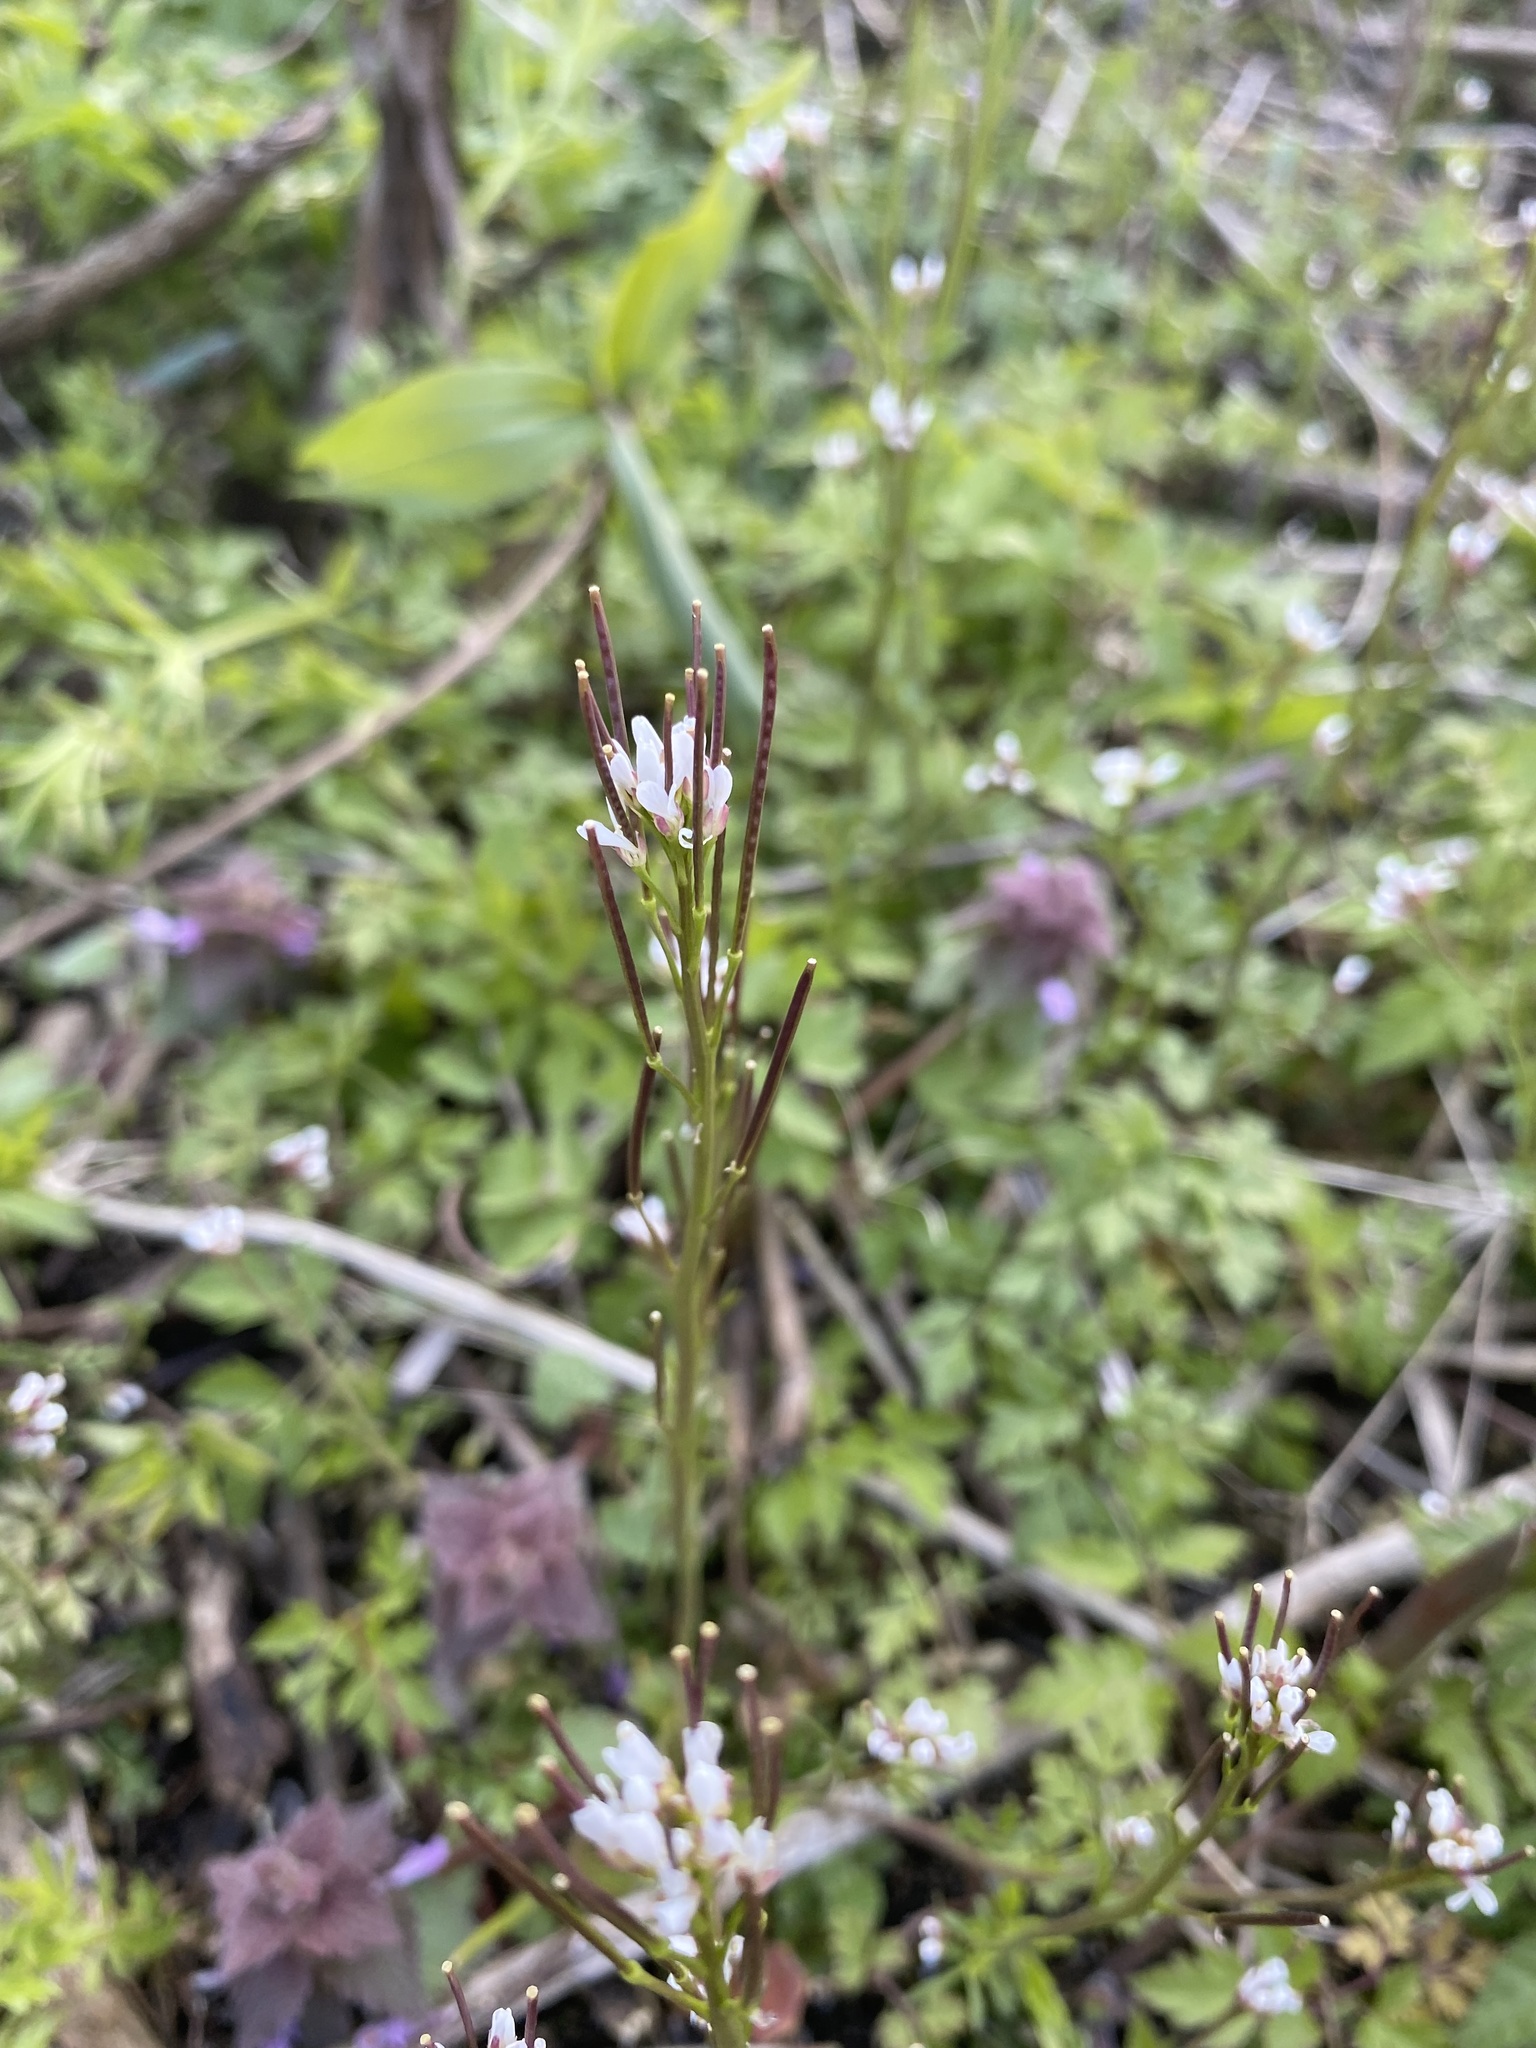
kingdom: Plantae
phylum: Tracheophyta
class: Magnoliopsida
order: Brassicales
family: Brassicaceae
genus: Cardamine
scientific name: Cardamine hirsuta
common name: Hairy bittercress
